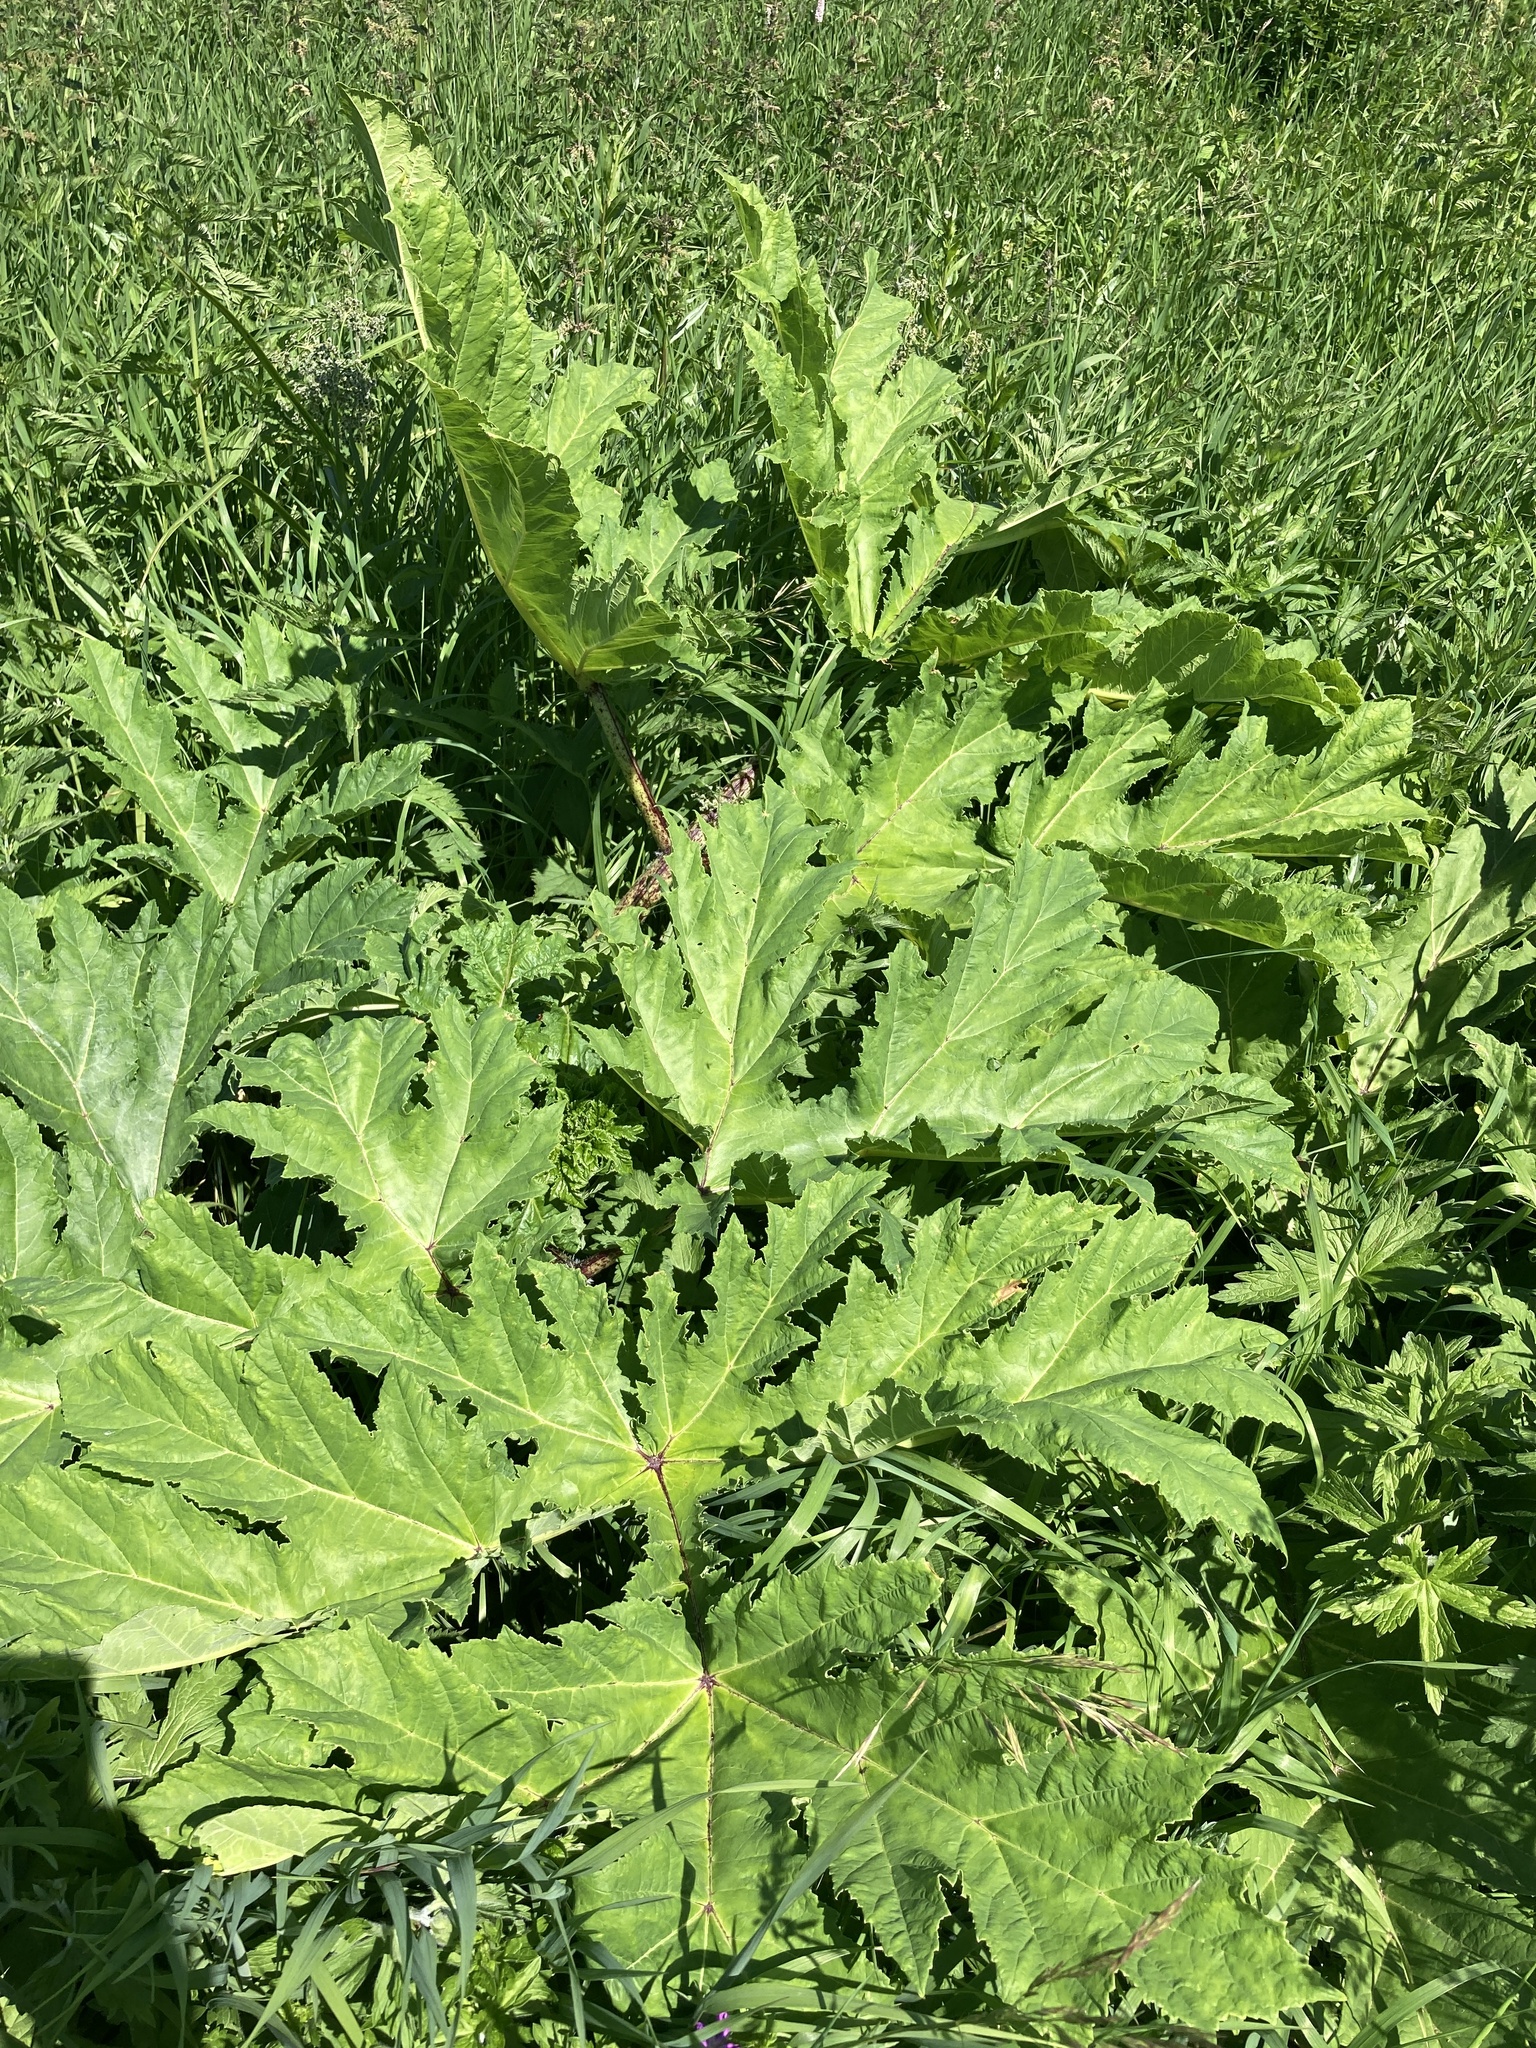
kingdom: Plantae
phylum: Tracheophyta
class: Magnoliopsida
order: Apiales
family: Apiaceae
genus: Heracleum
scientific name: Heracleum sosnowskyi
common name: Sosnowsky's hogweed
